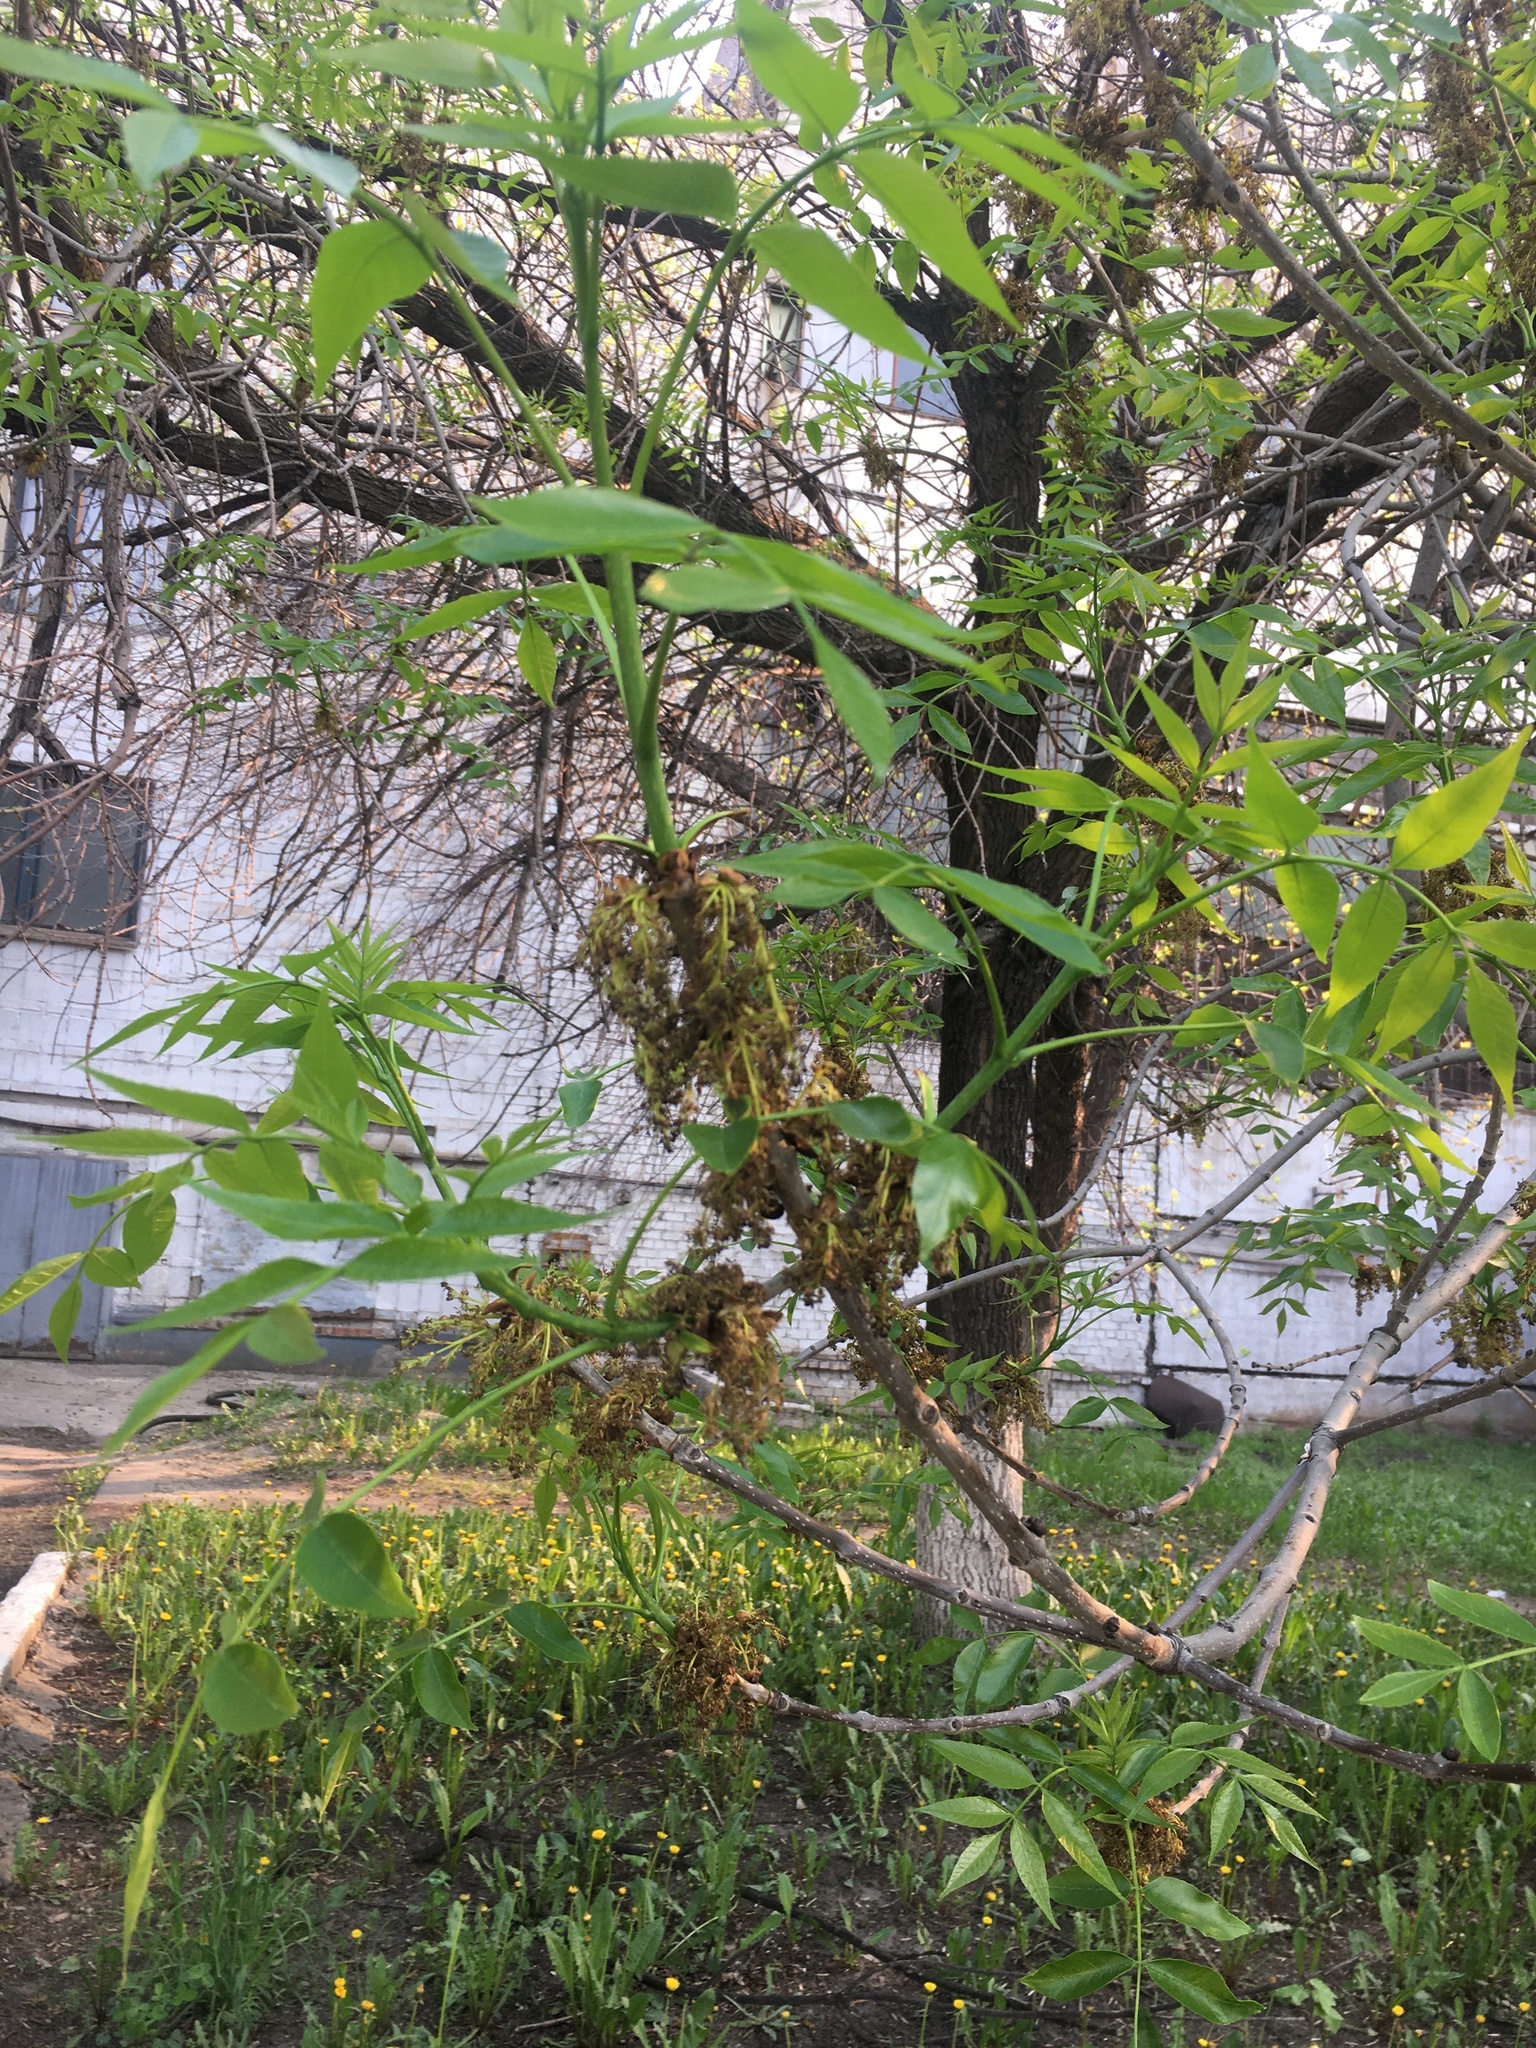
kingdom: Plantae
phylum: Tracheophyta
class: Magnoliopsida
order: Lamiales
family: Oleaceae
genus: Fraxinus
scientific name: Fraxinus pennsylvanica
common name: Green ash
